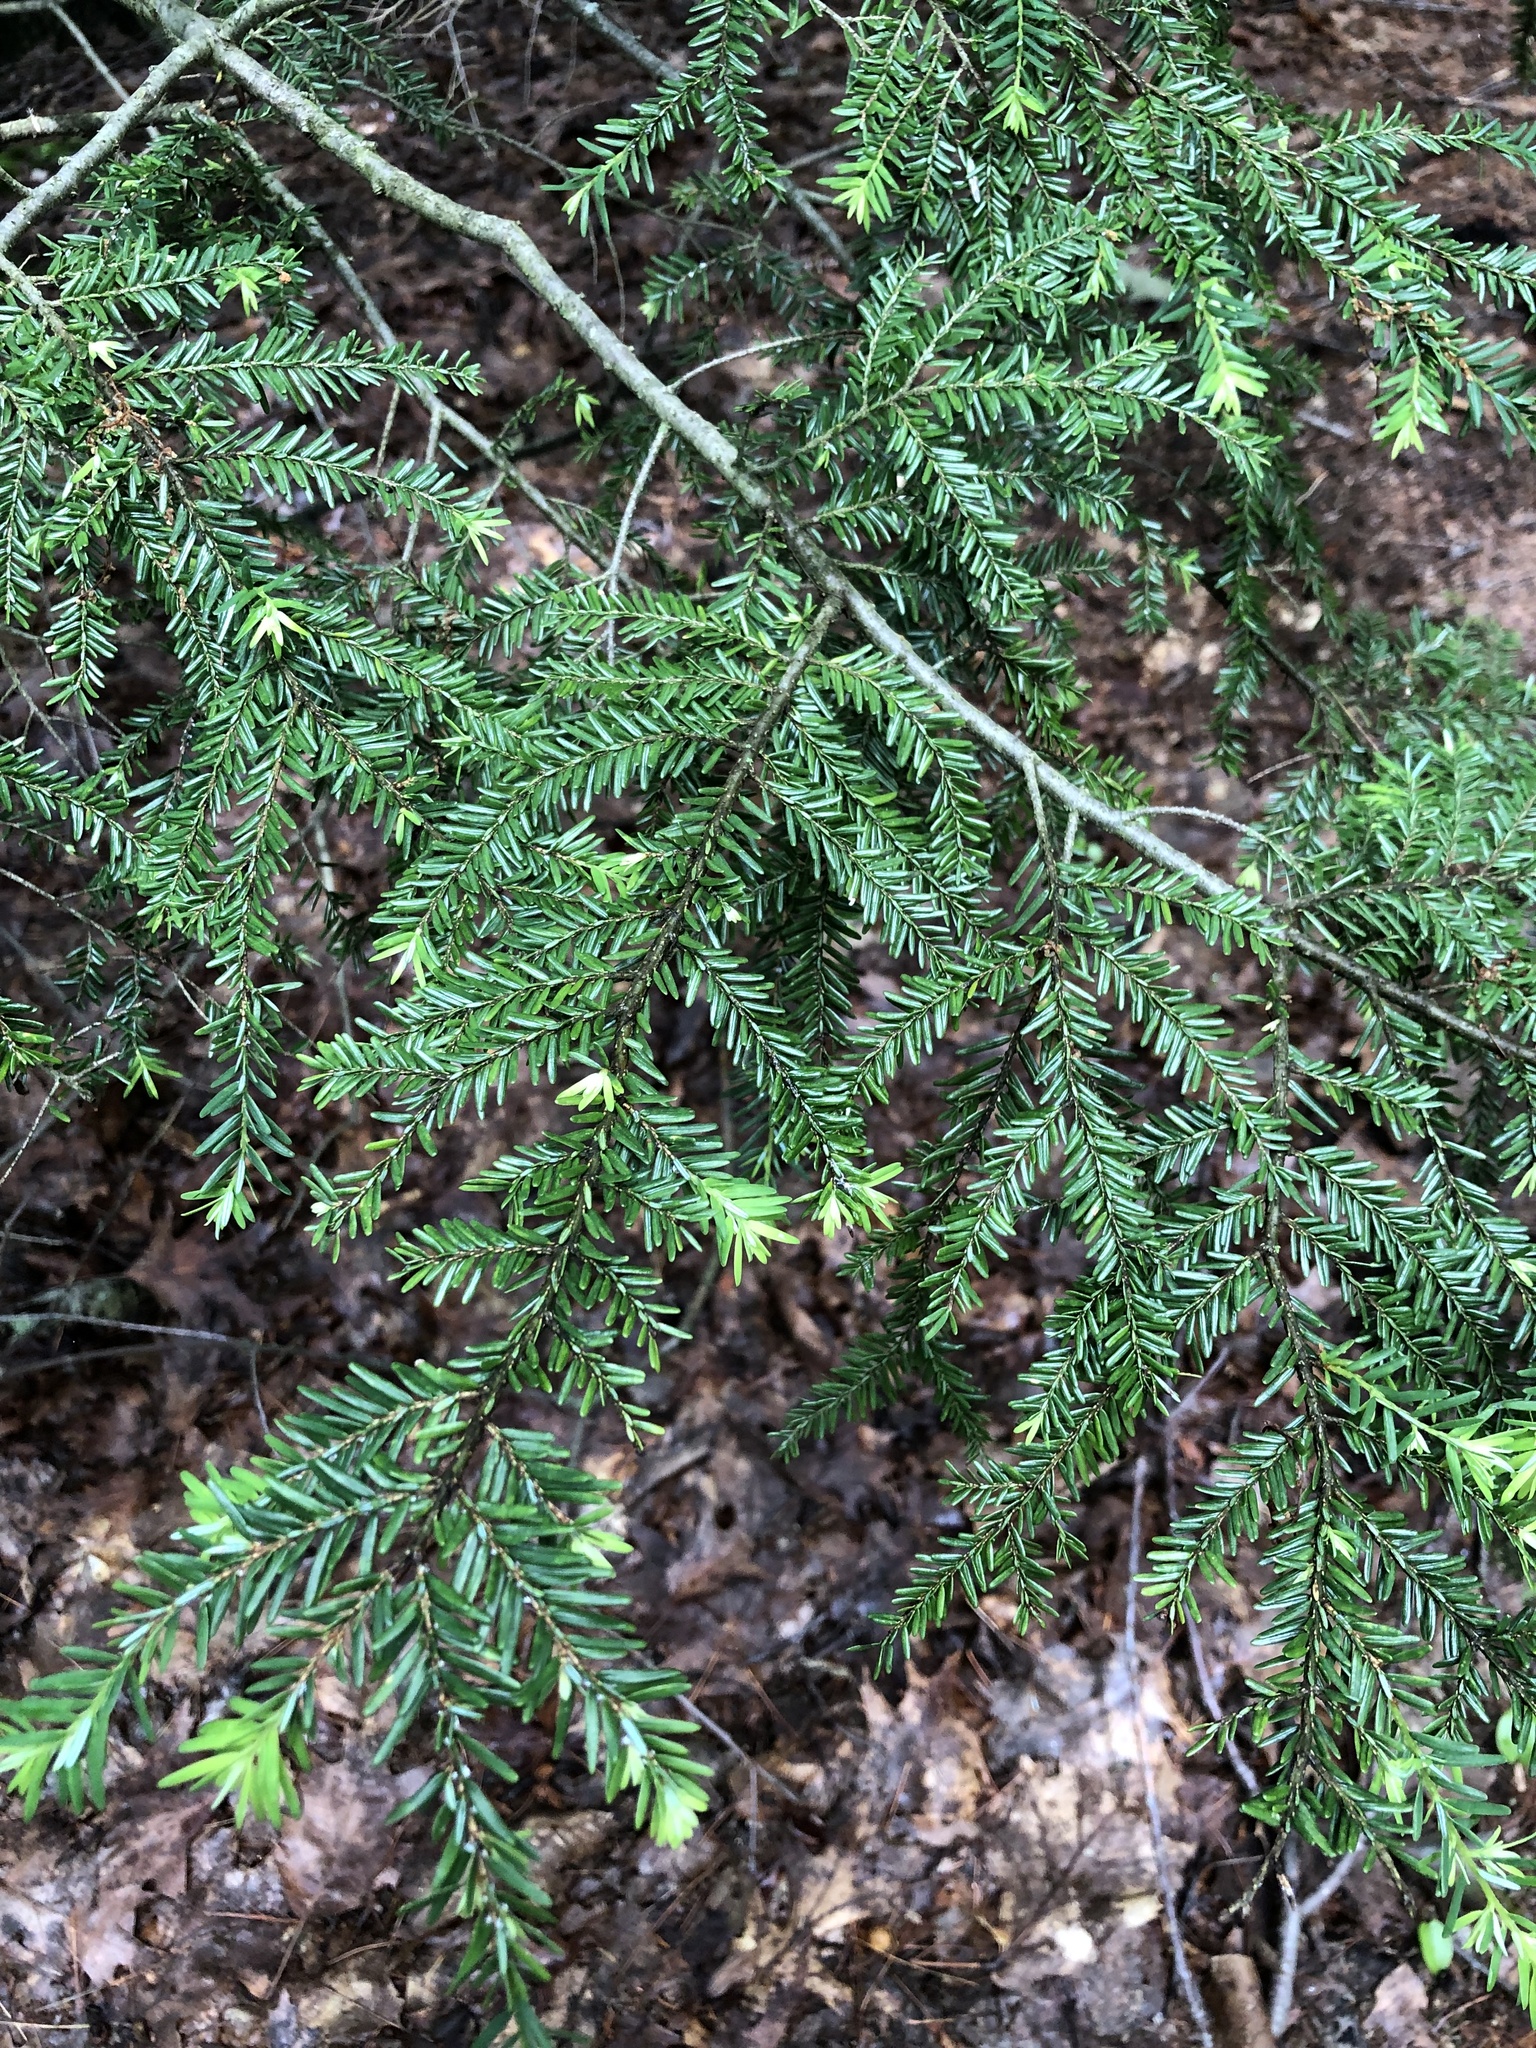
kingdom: Plantae
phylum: Tracheophyta
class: Pinopsida
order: Pinales
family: Pinaceae
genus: Tsuga
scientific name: Tsuga canadensis
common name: Eastern hemlock
